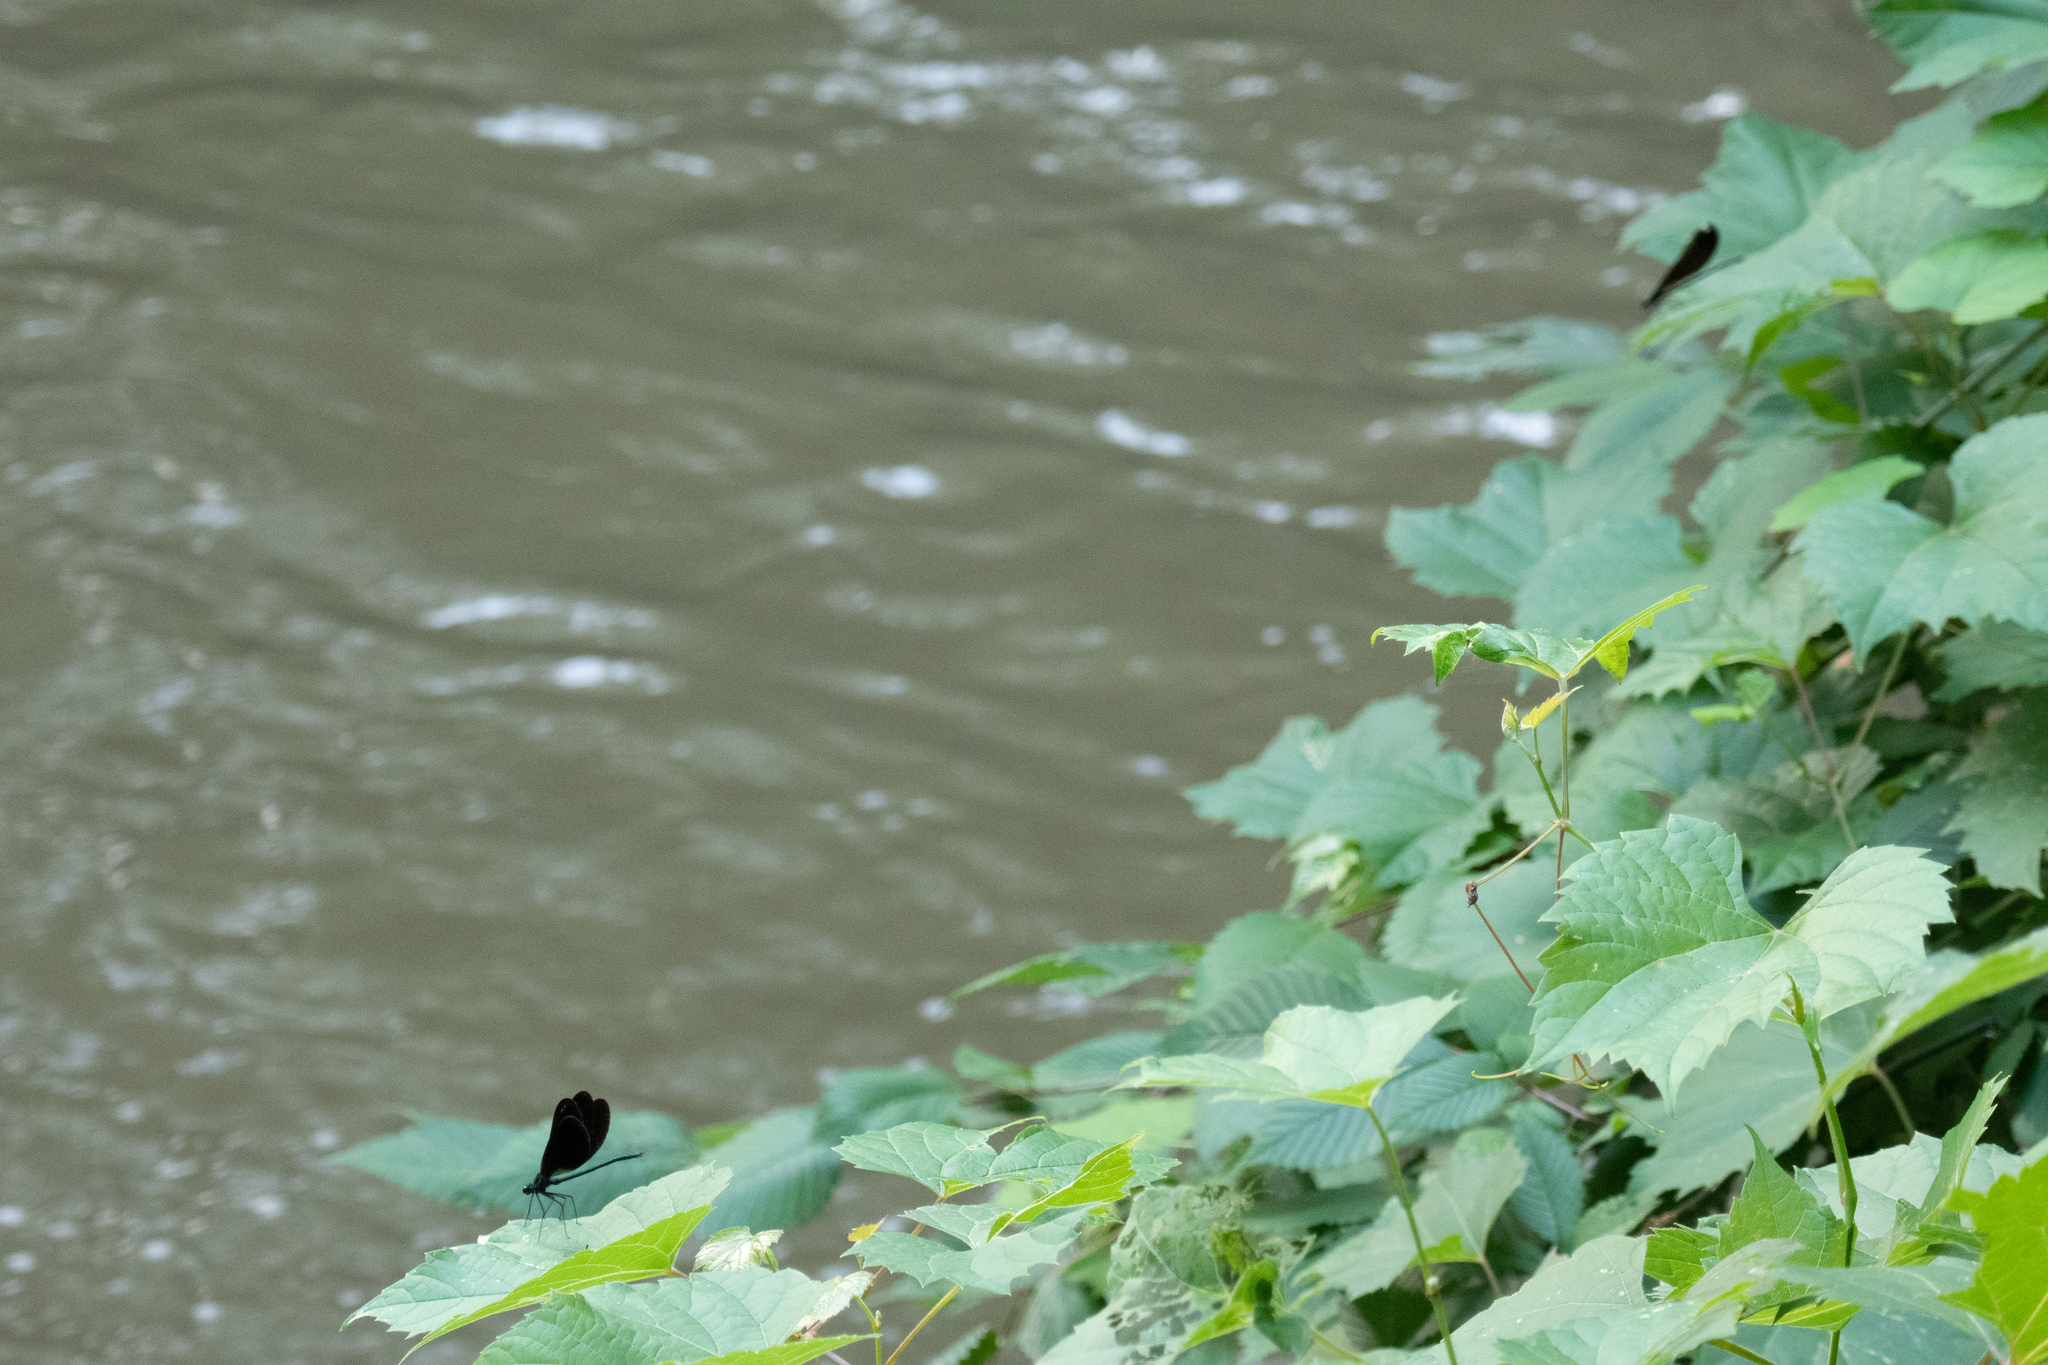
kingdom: Animalia
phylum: Arthropoda
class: Insecta
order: Odonata
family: Calopterygidae
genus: Calopteryx
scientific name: Calopteryx maculata
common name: Ebony jewelwing
